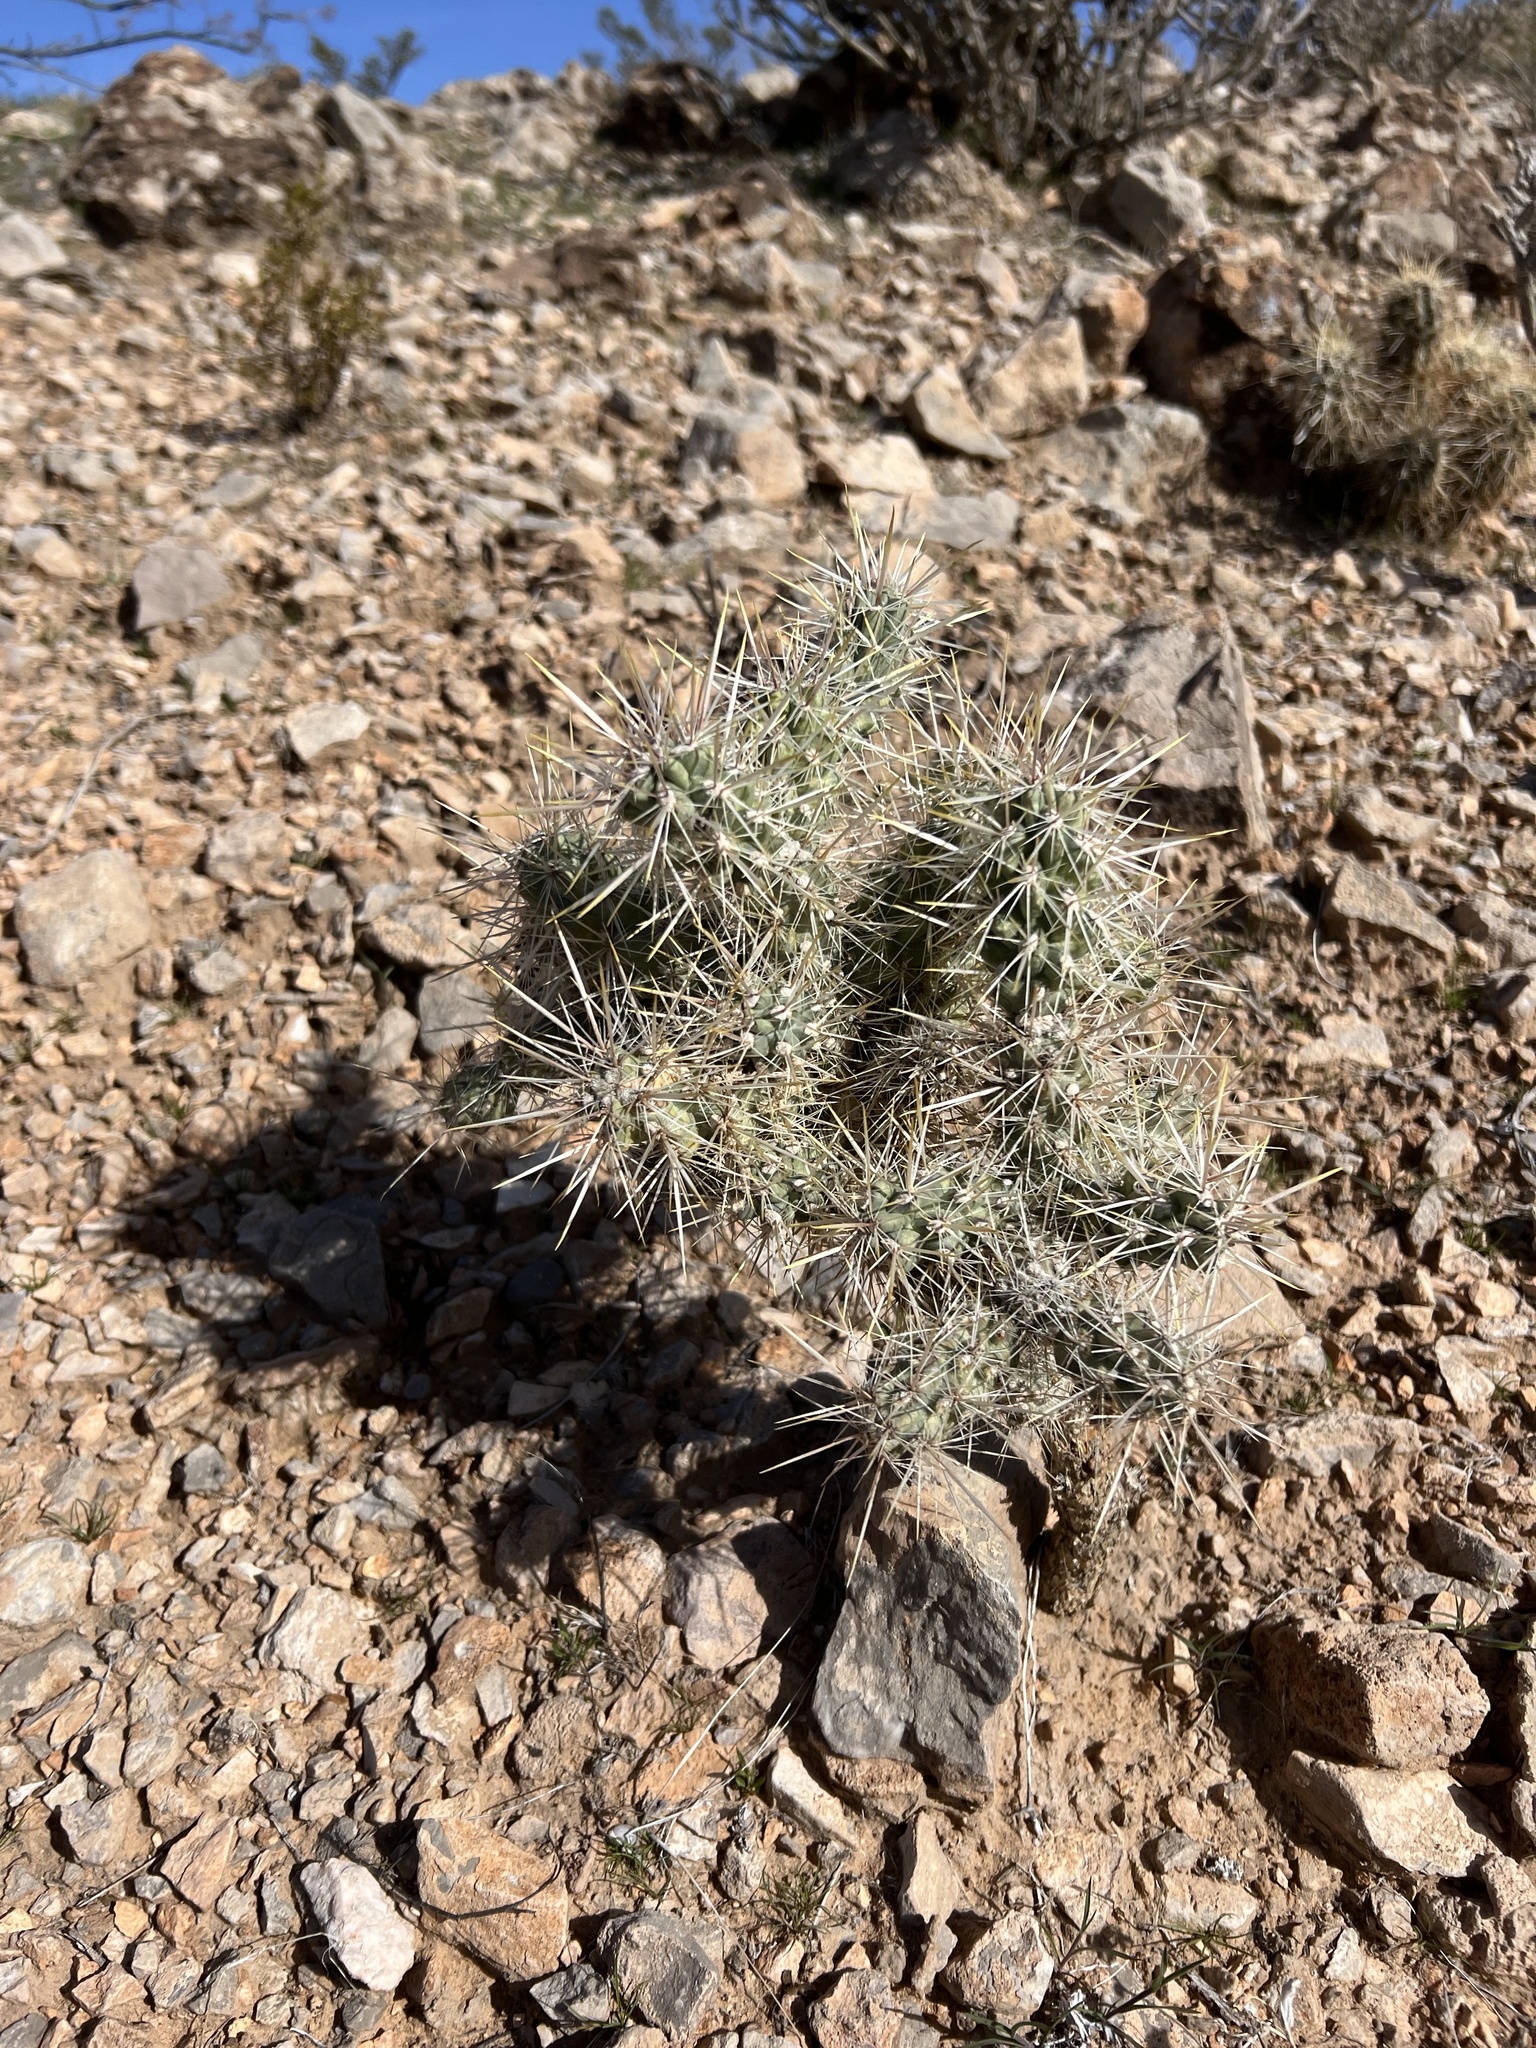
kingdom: Plantae
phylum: Tracheophyta
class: Magnoliopsida
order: Caryophyllales
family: Cactaceae
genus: Cylindropuntia
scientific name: Cylindropuntia echinocarpa
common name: Ground cholla
